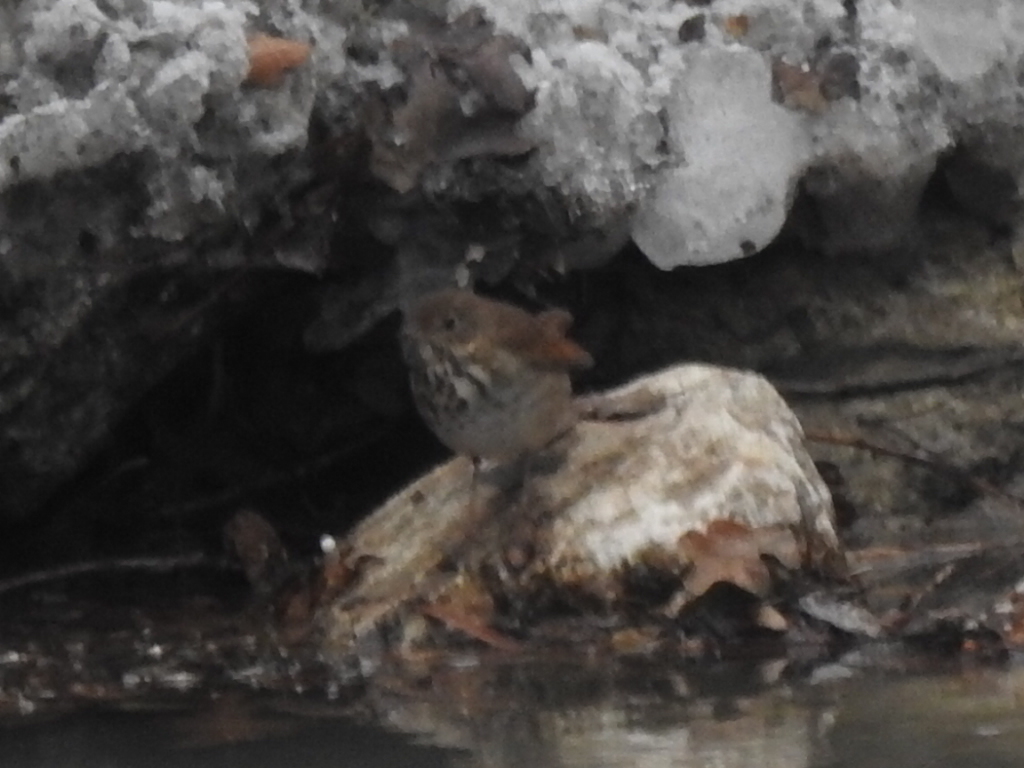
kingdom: Animalia
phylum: Chordata
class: Aves
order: Passeriformes
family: Turdidae
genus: Catharus
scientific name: Catharus guttatus
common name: Hermit thrush
